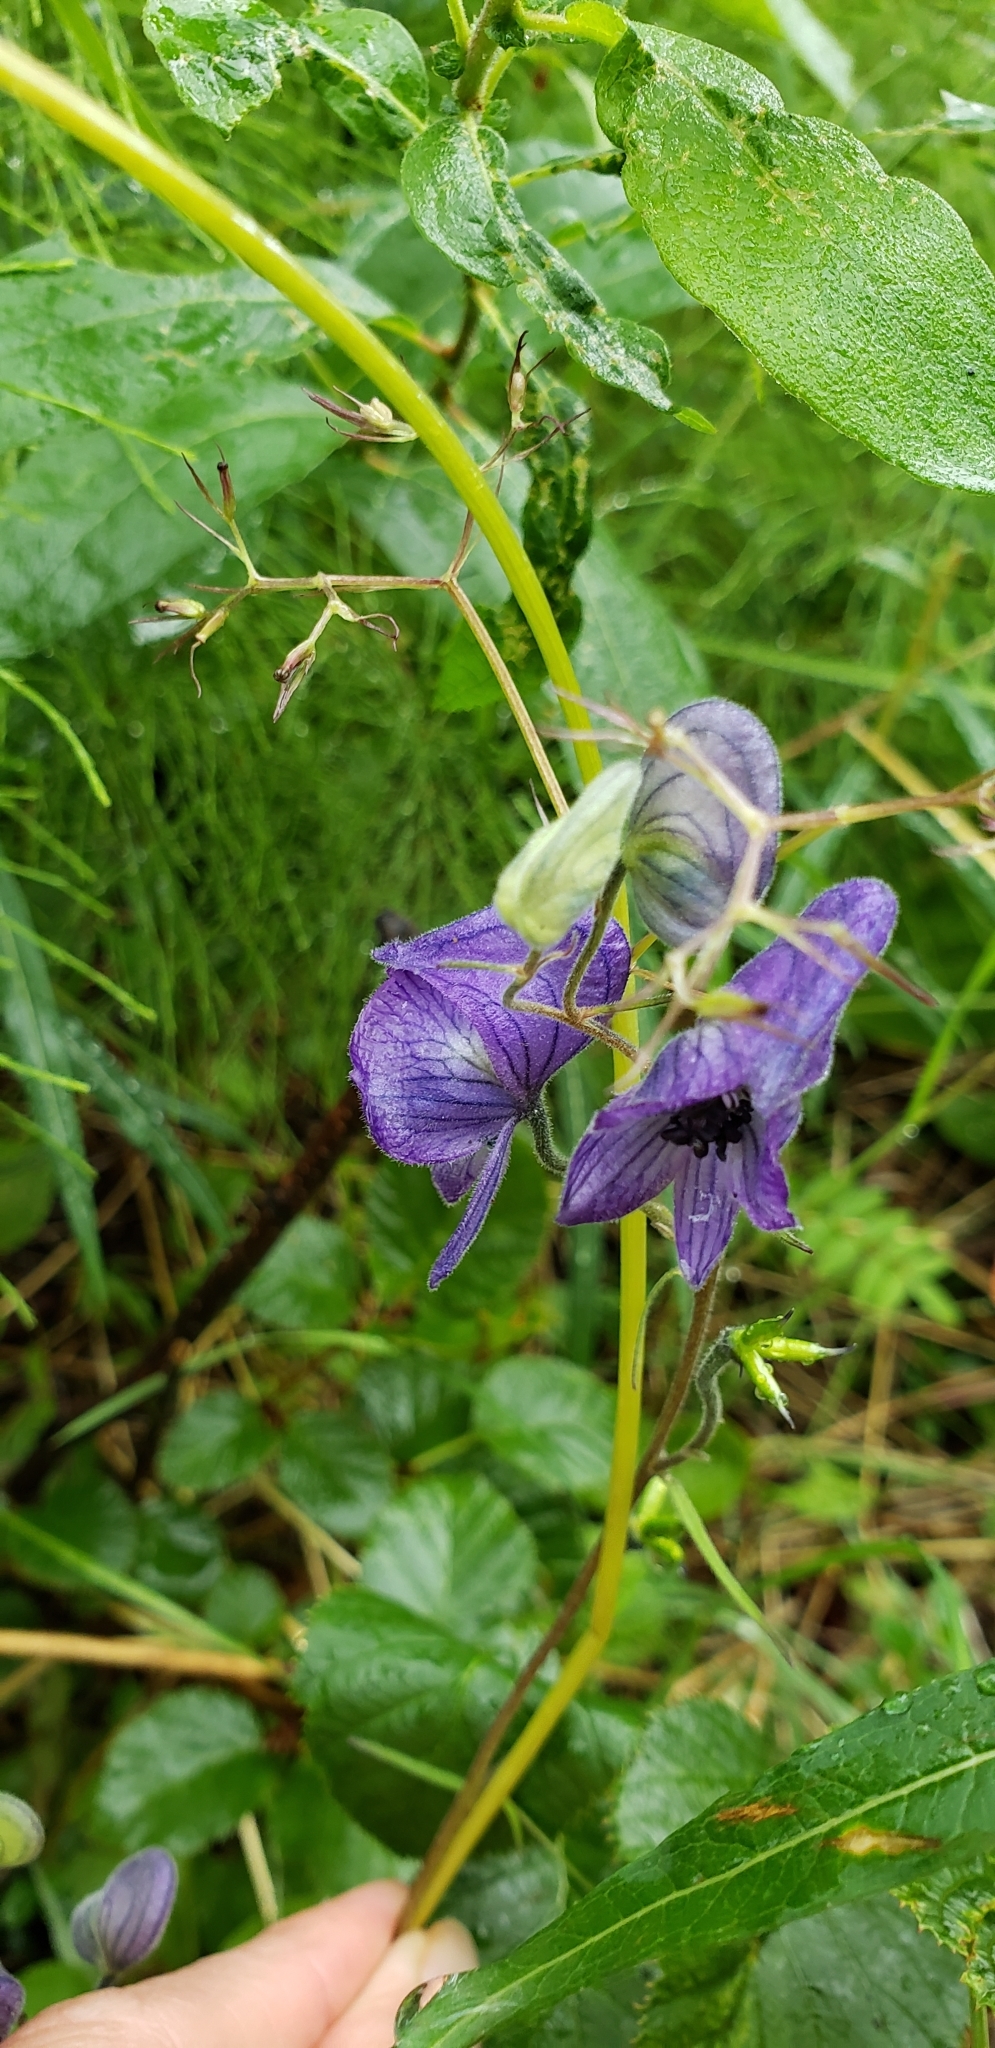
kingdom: Plantae
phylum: Tracheophyta
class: Magnoliopsida
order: Ranunculales
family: Ranunculaceae
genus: Aconitum
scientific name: Aconitum delphiniifolium
